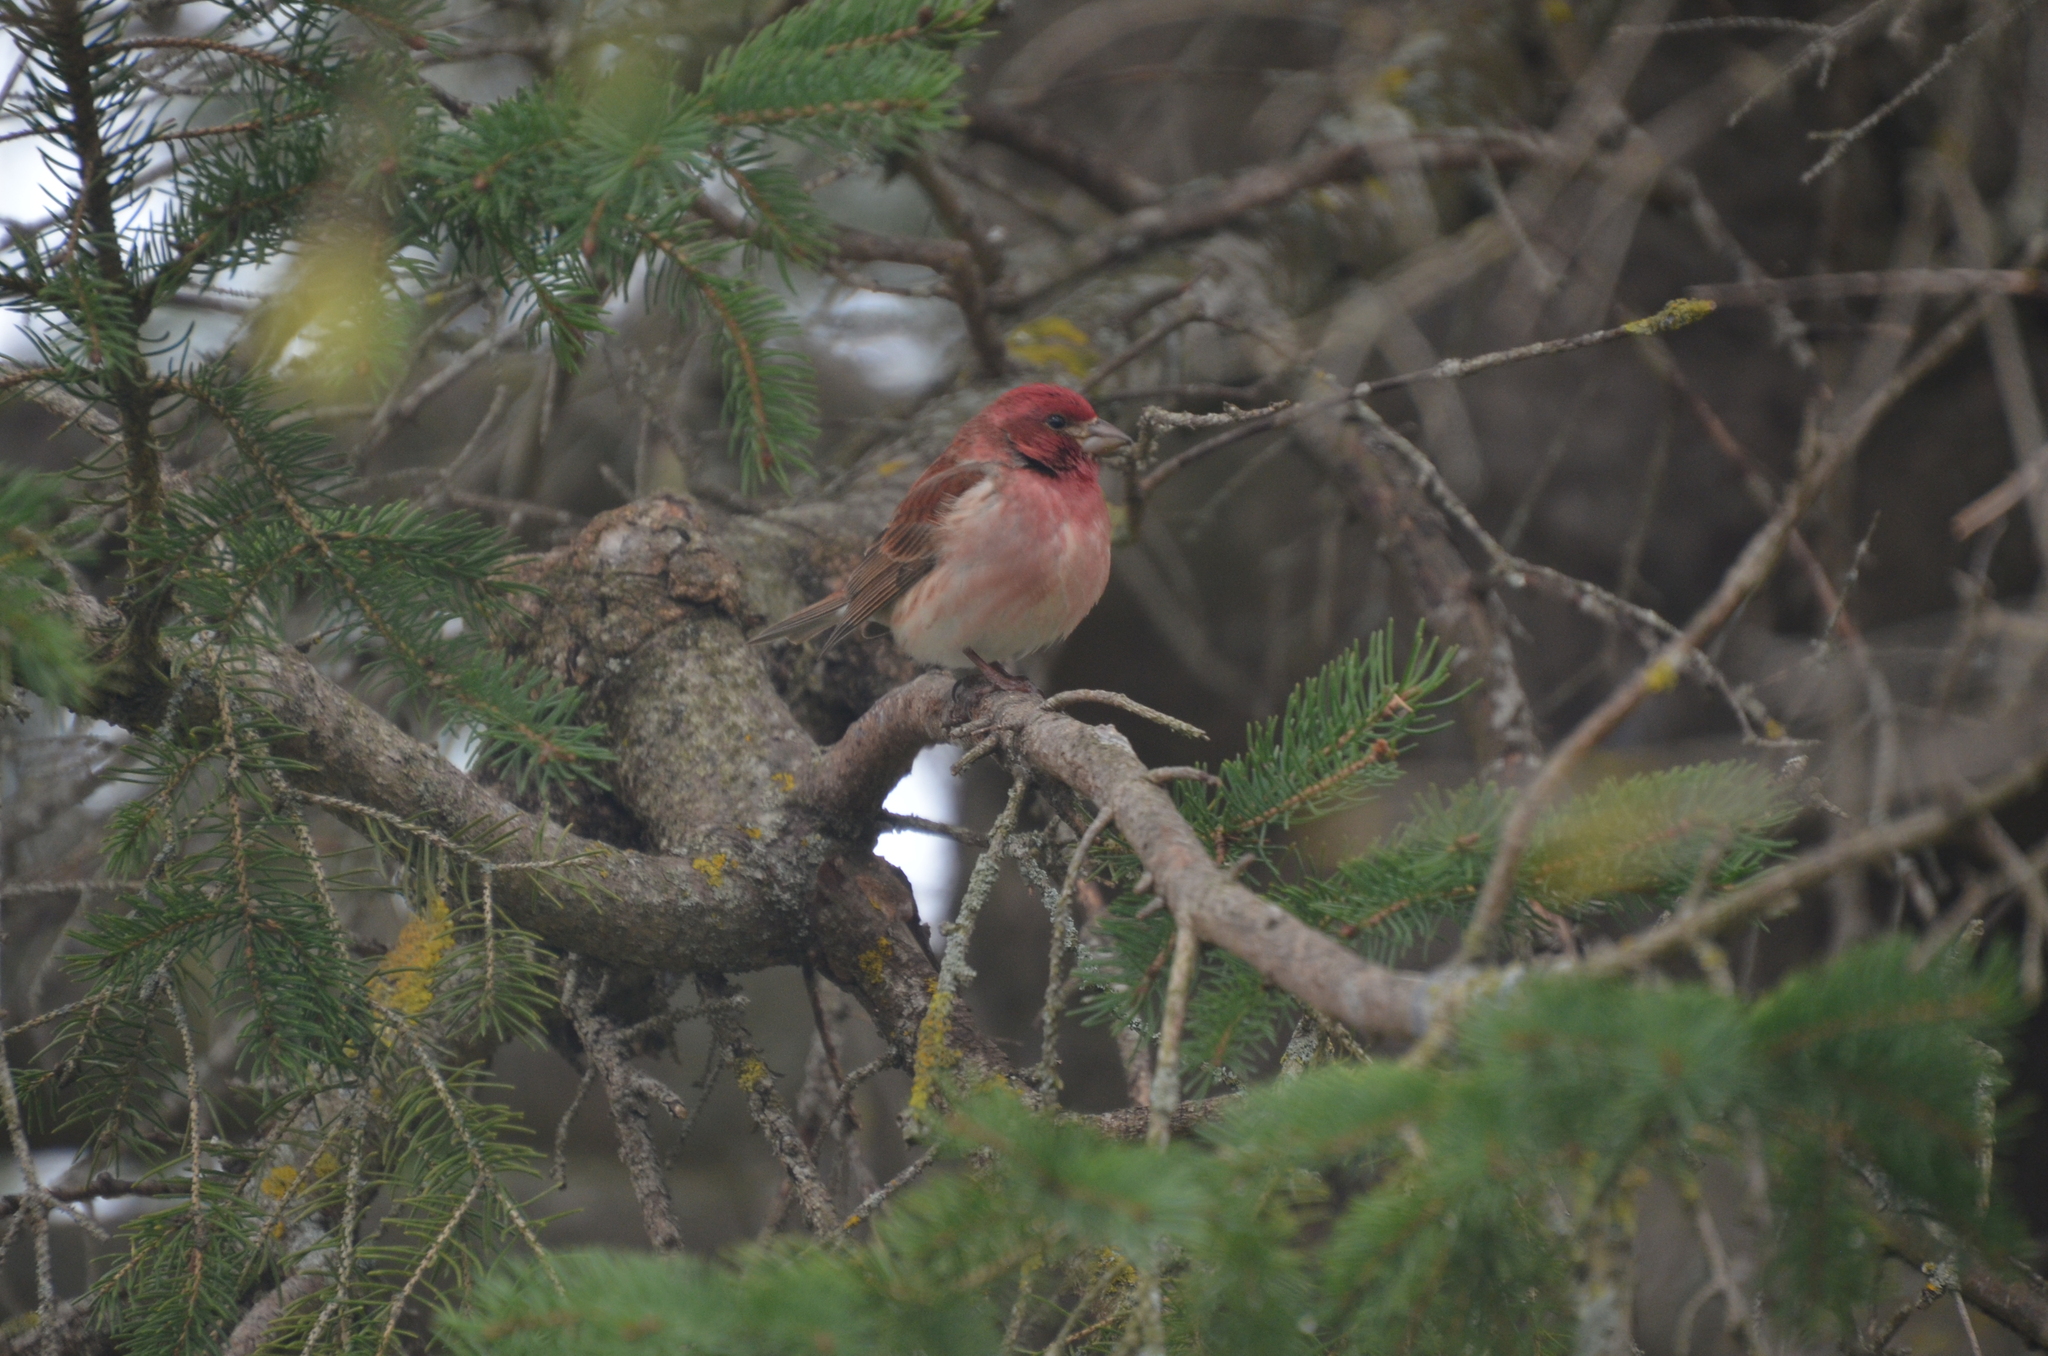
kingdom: Animalia
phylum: Chordata
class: Aves
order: Passeriformes
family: Fringillidae
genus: Haemorhous
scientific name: Haemorhous purpureus
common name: Purple finch
